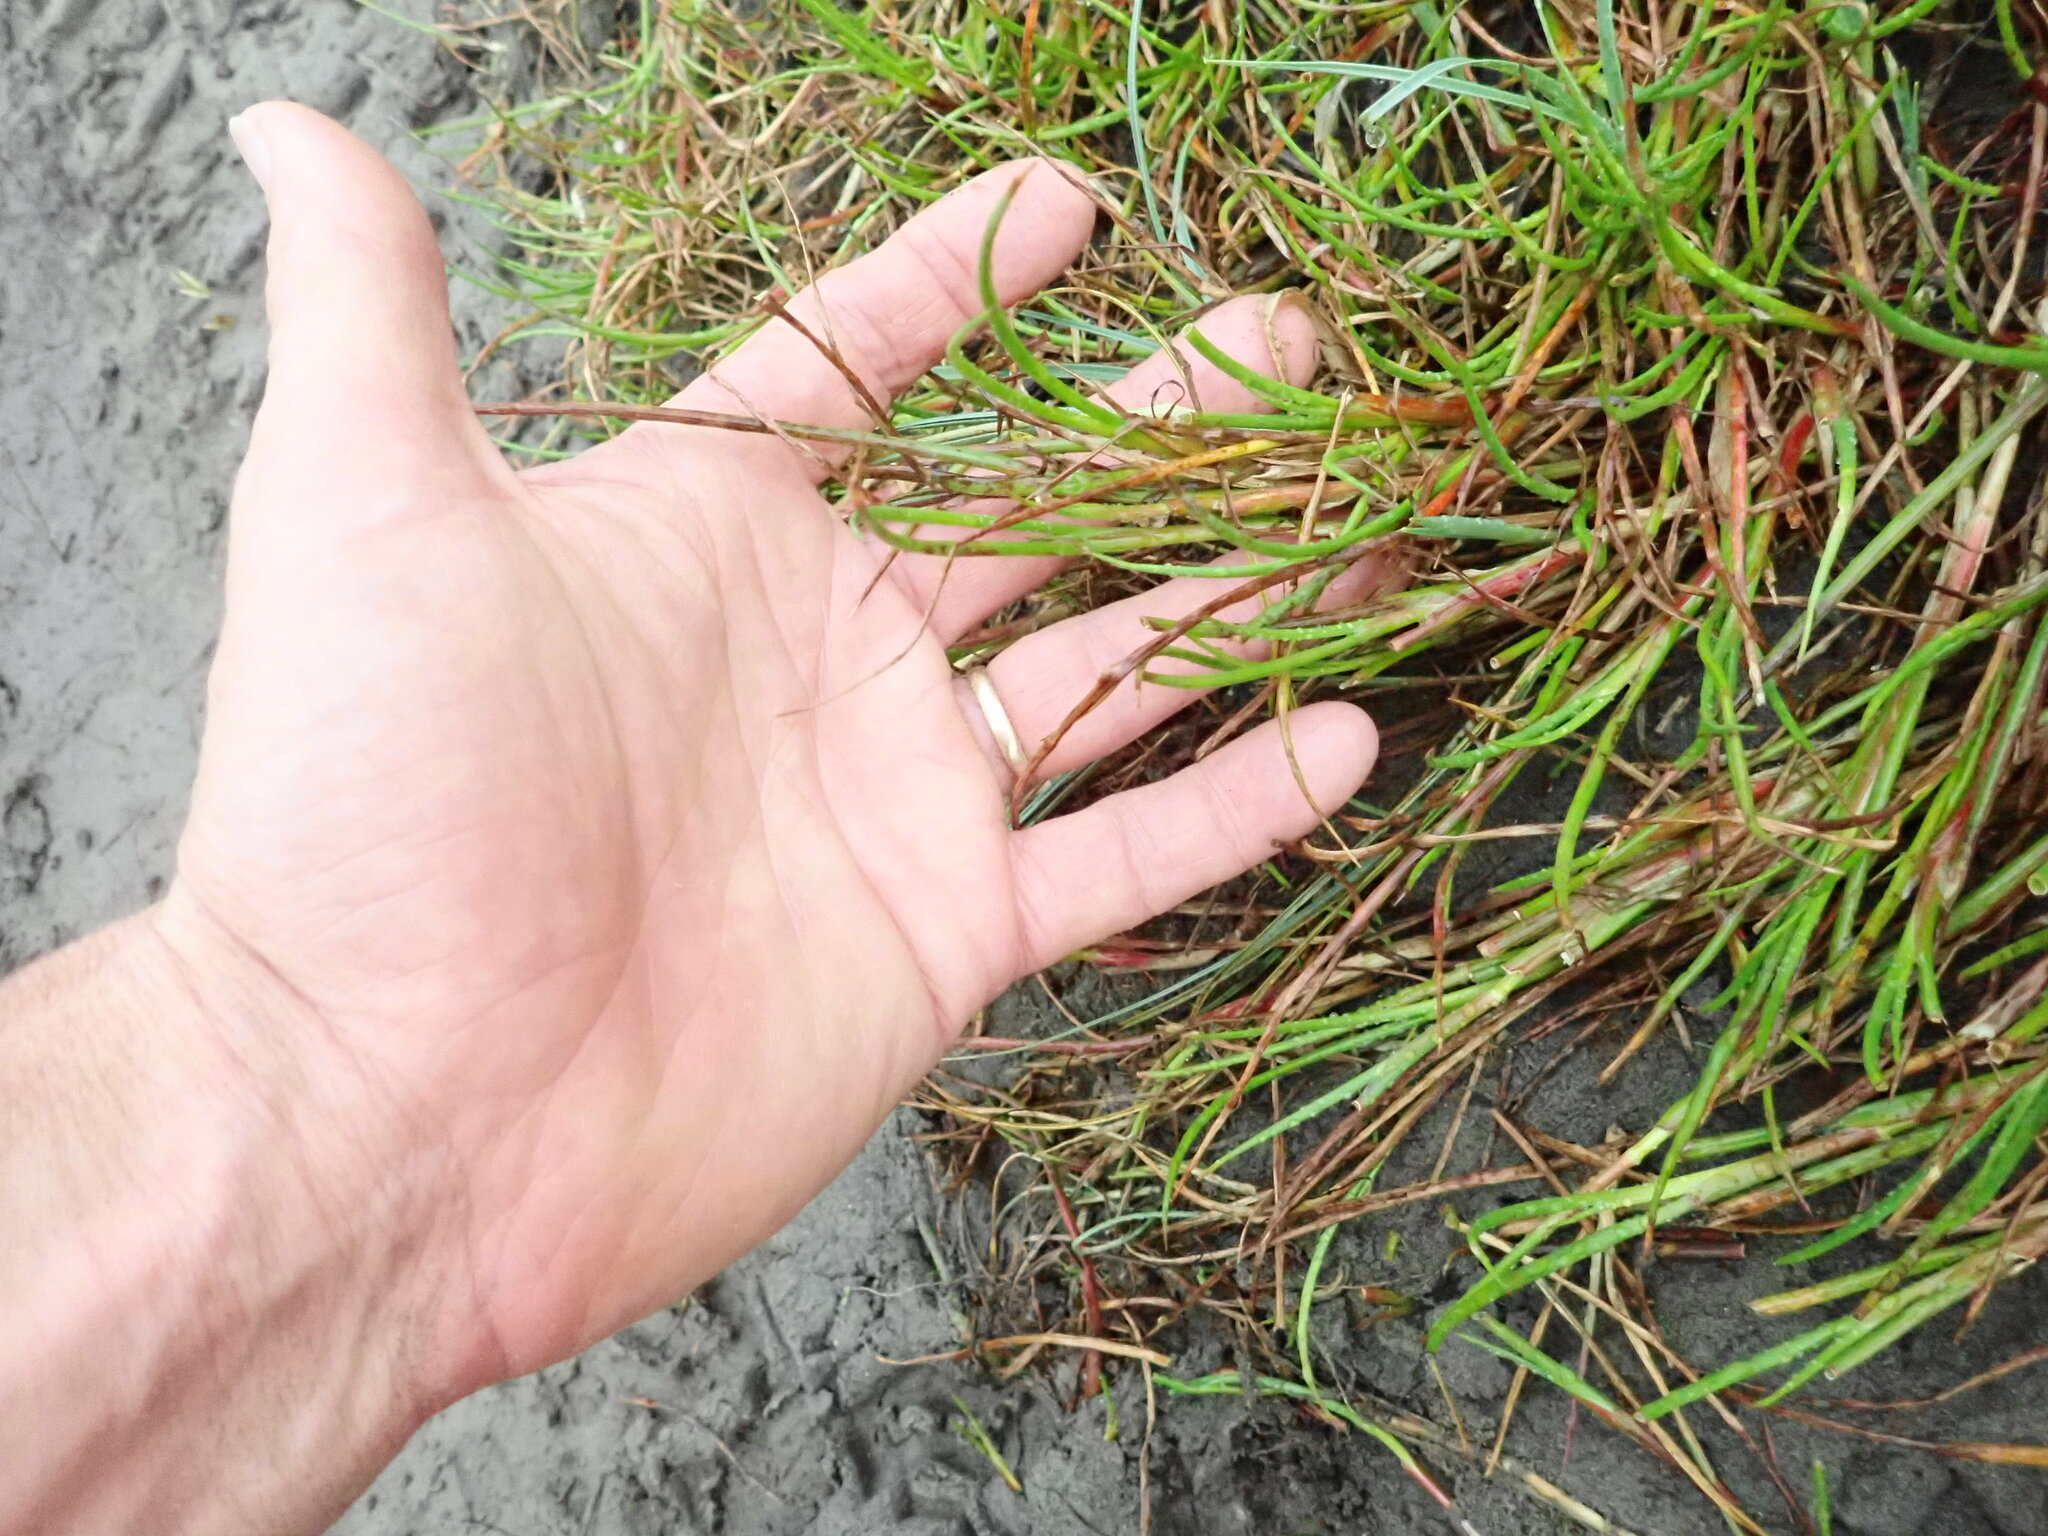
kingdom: Plantae
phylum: Tracheophyta
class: Liliopsida
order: Poales
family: Juncaceae
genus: Juncus
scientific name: Juncus articulatus
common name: Jointed rush
